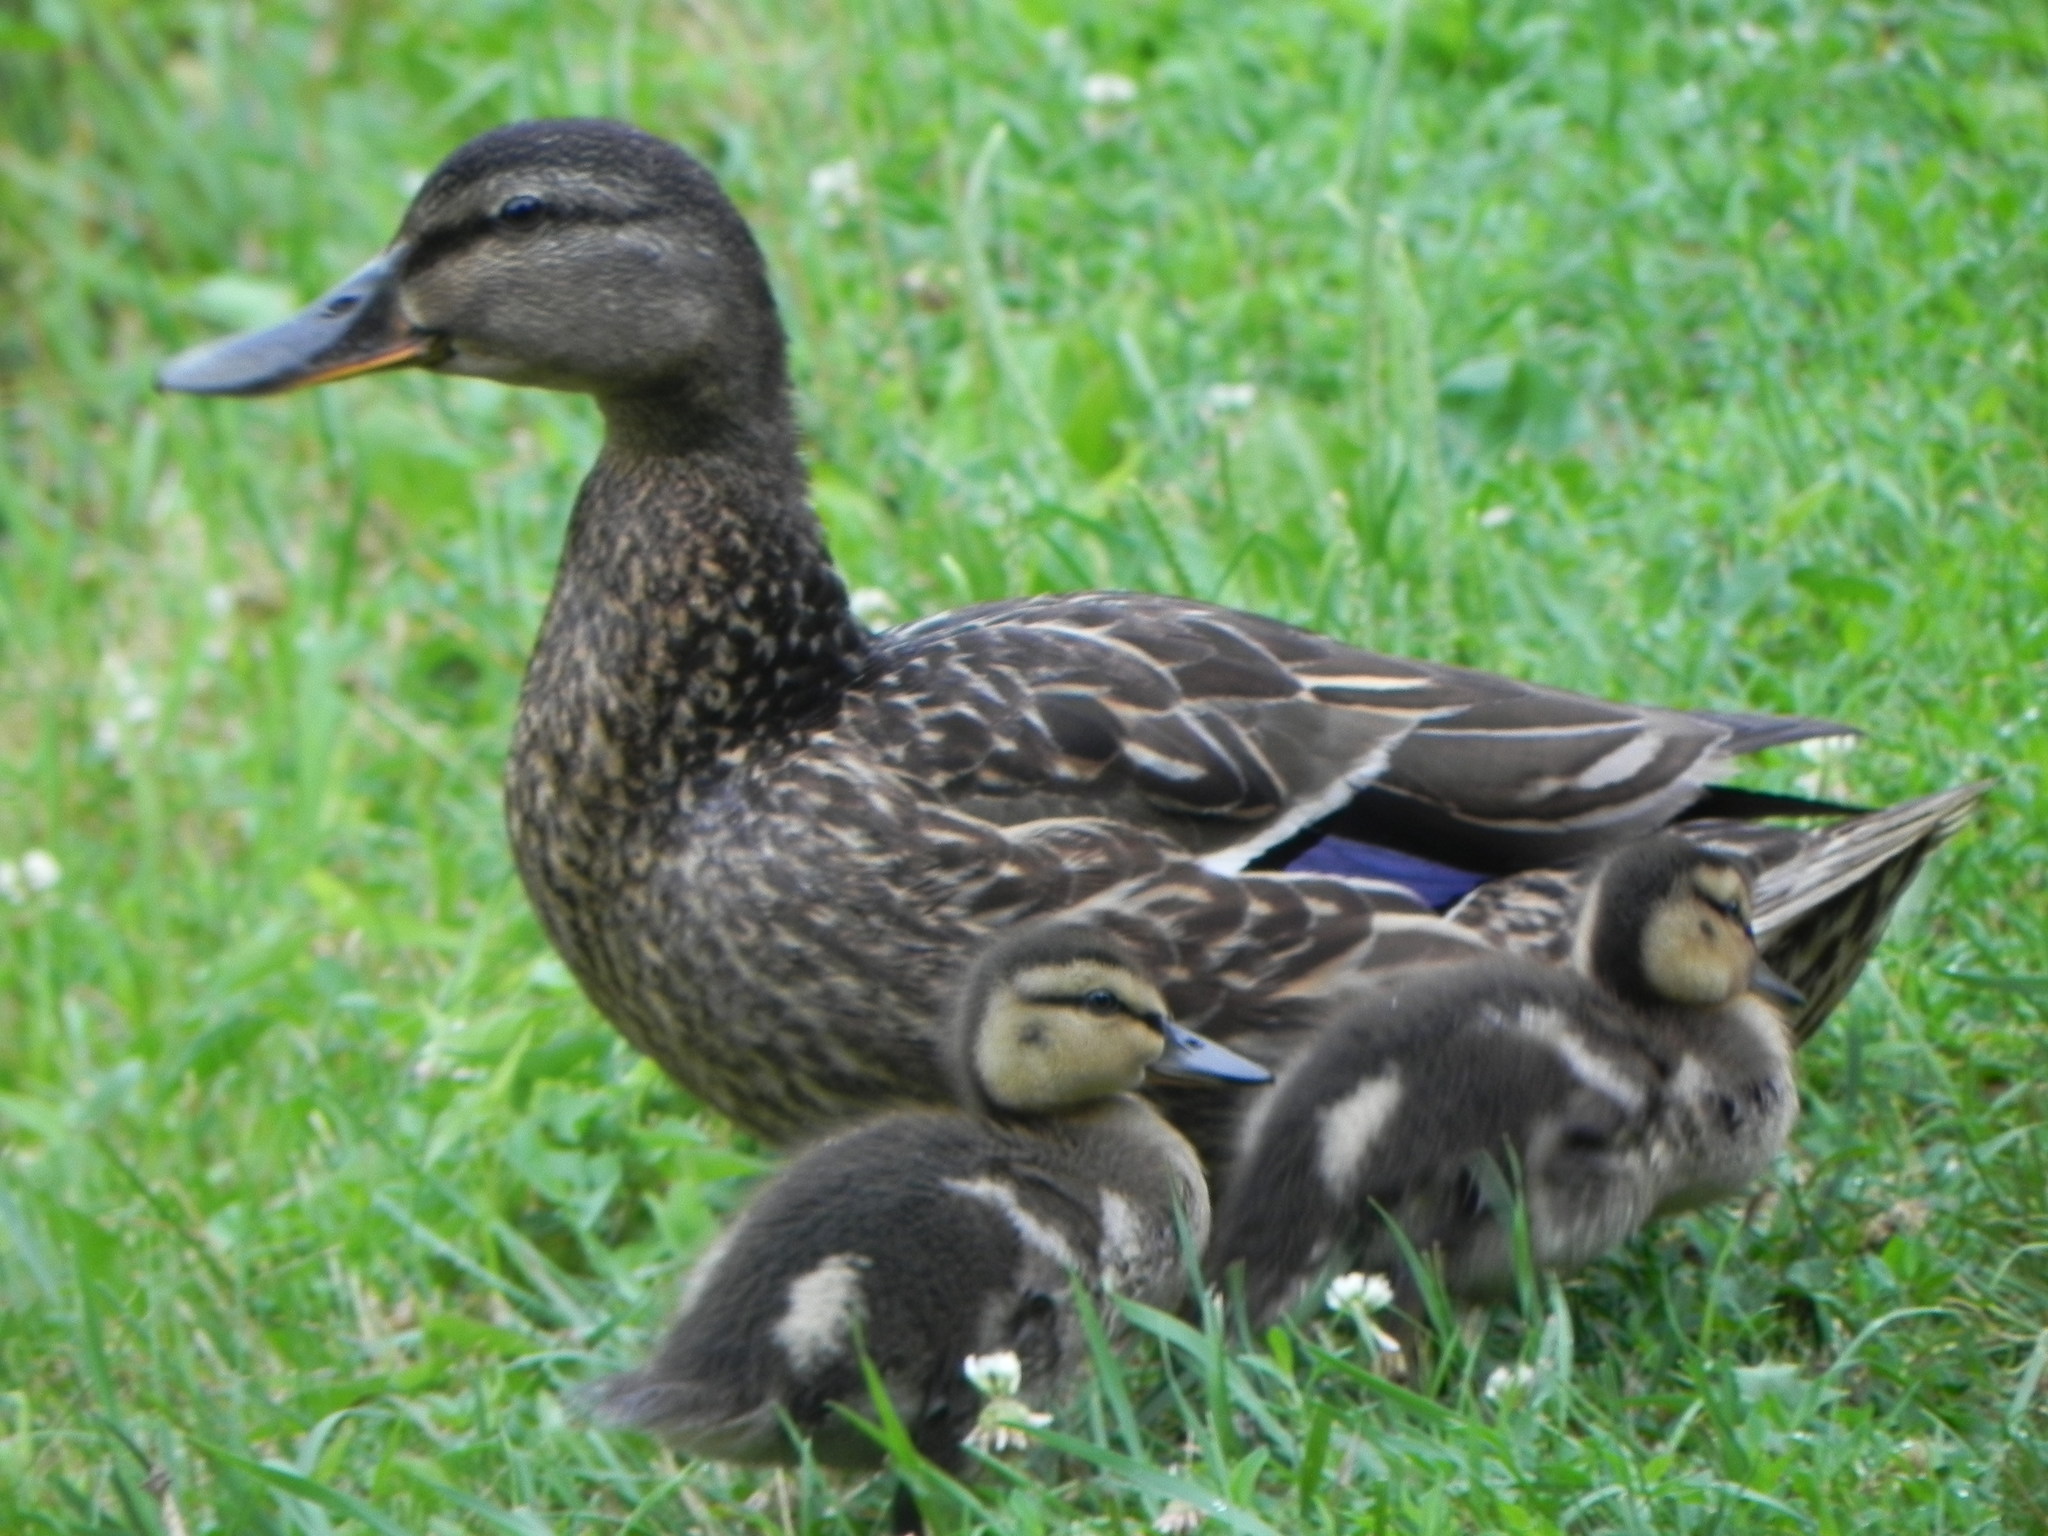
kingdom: Animalia
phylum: Chordata
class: Aves
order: Anseriformes
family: Anatidae
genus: Anas
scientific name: Anas platyrhynchos
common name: Mallard
